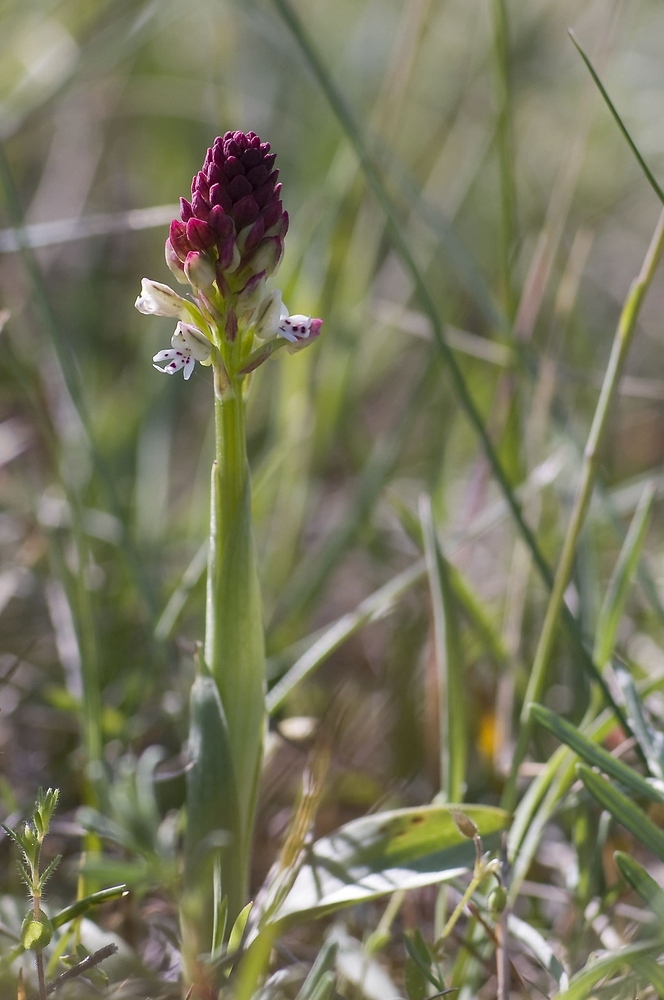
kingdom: Plantae
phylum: Tracheophyta
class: Liliopsida
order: Asparagales
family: Orchidaceae
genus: Neotinea
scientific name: Neotinea ustulata
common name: Burnt orchid
